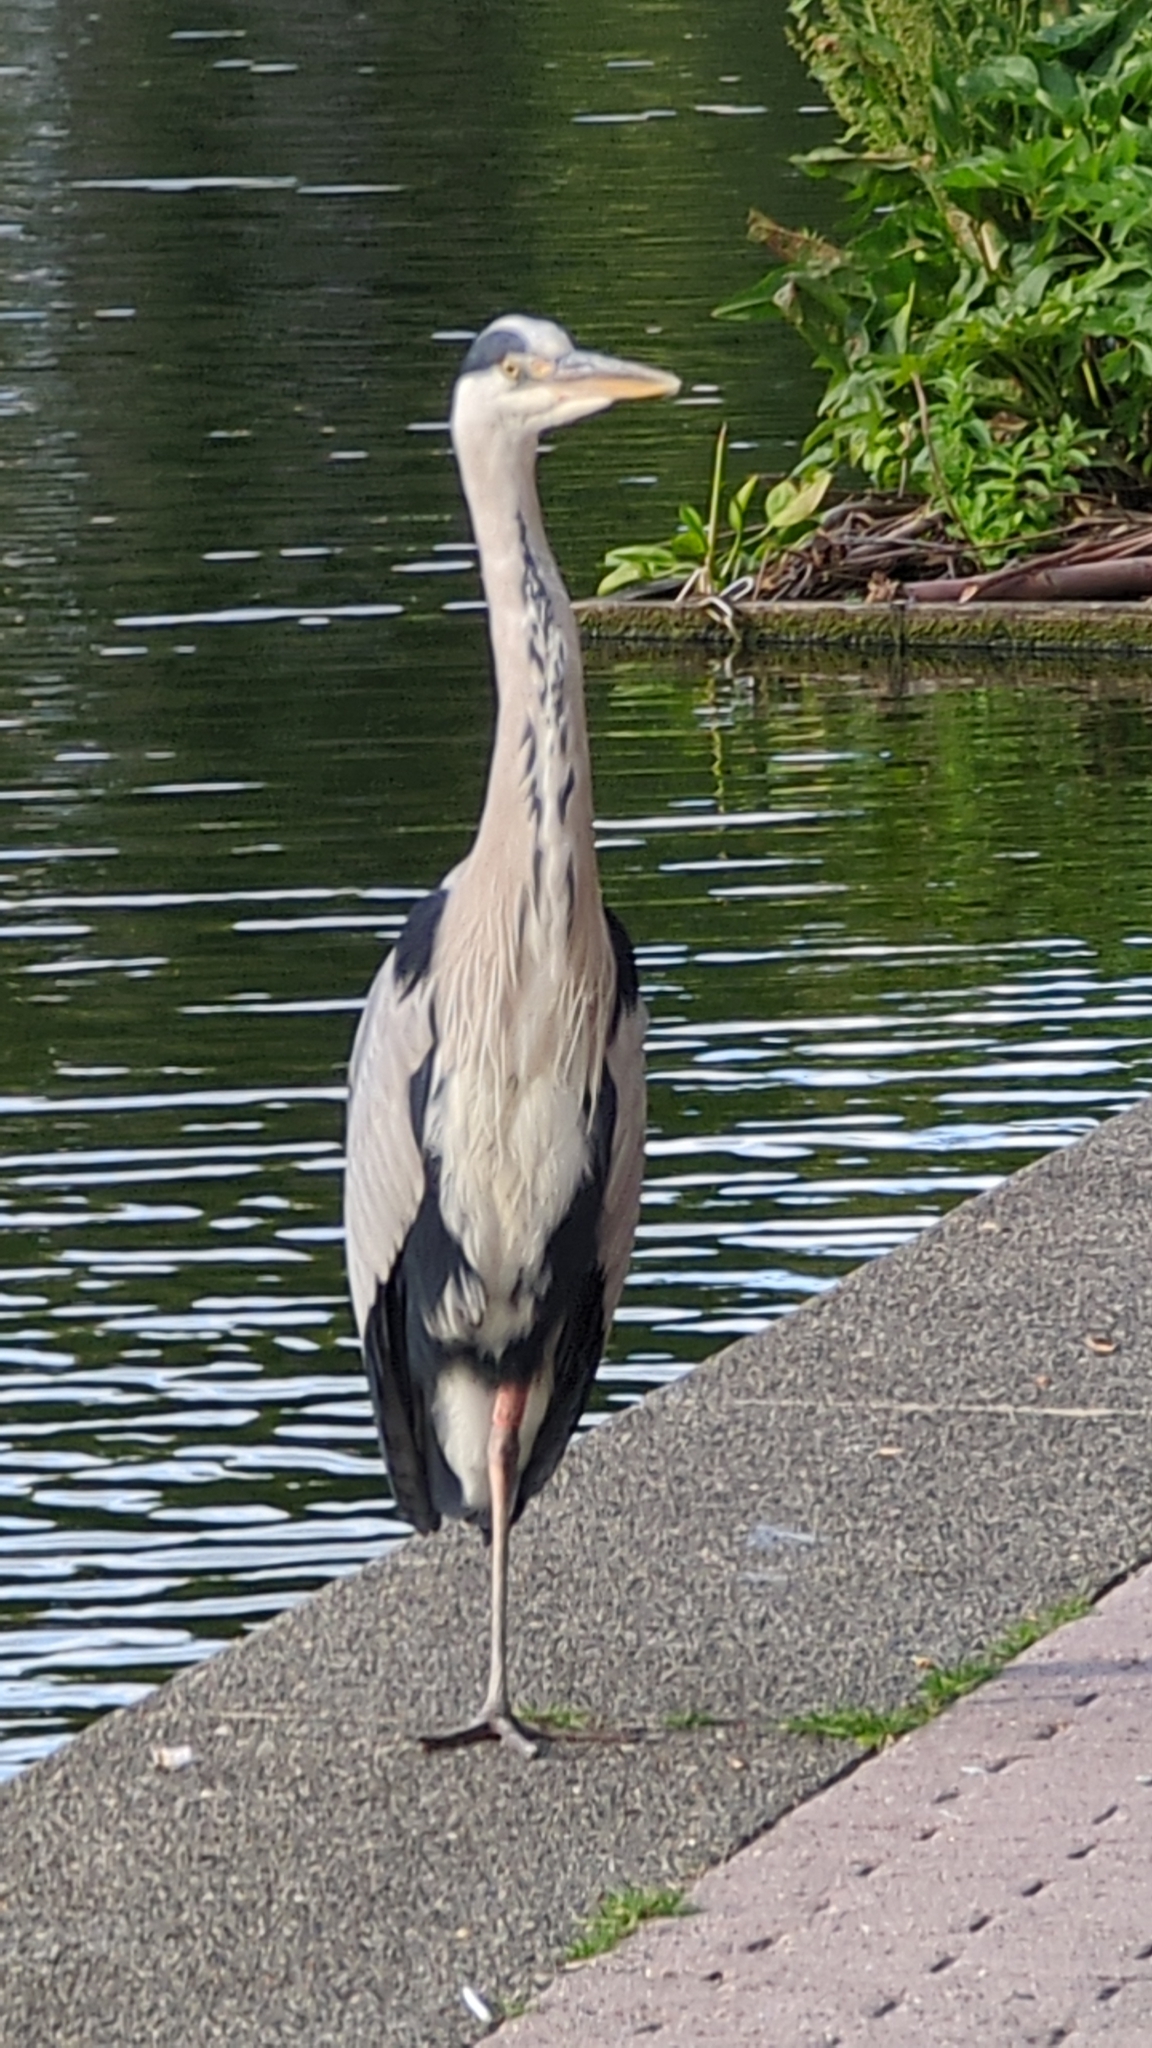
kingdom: Animalia
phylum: Chordata
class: Aves
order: Pelecaniformes
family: Ardeidae
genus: Ardea
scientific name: Ardea cinerea
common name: Grey heron
